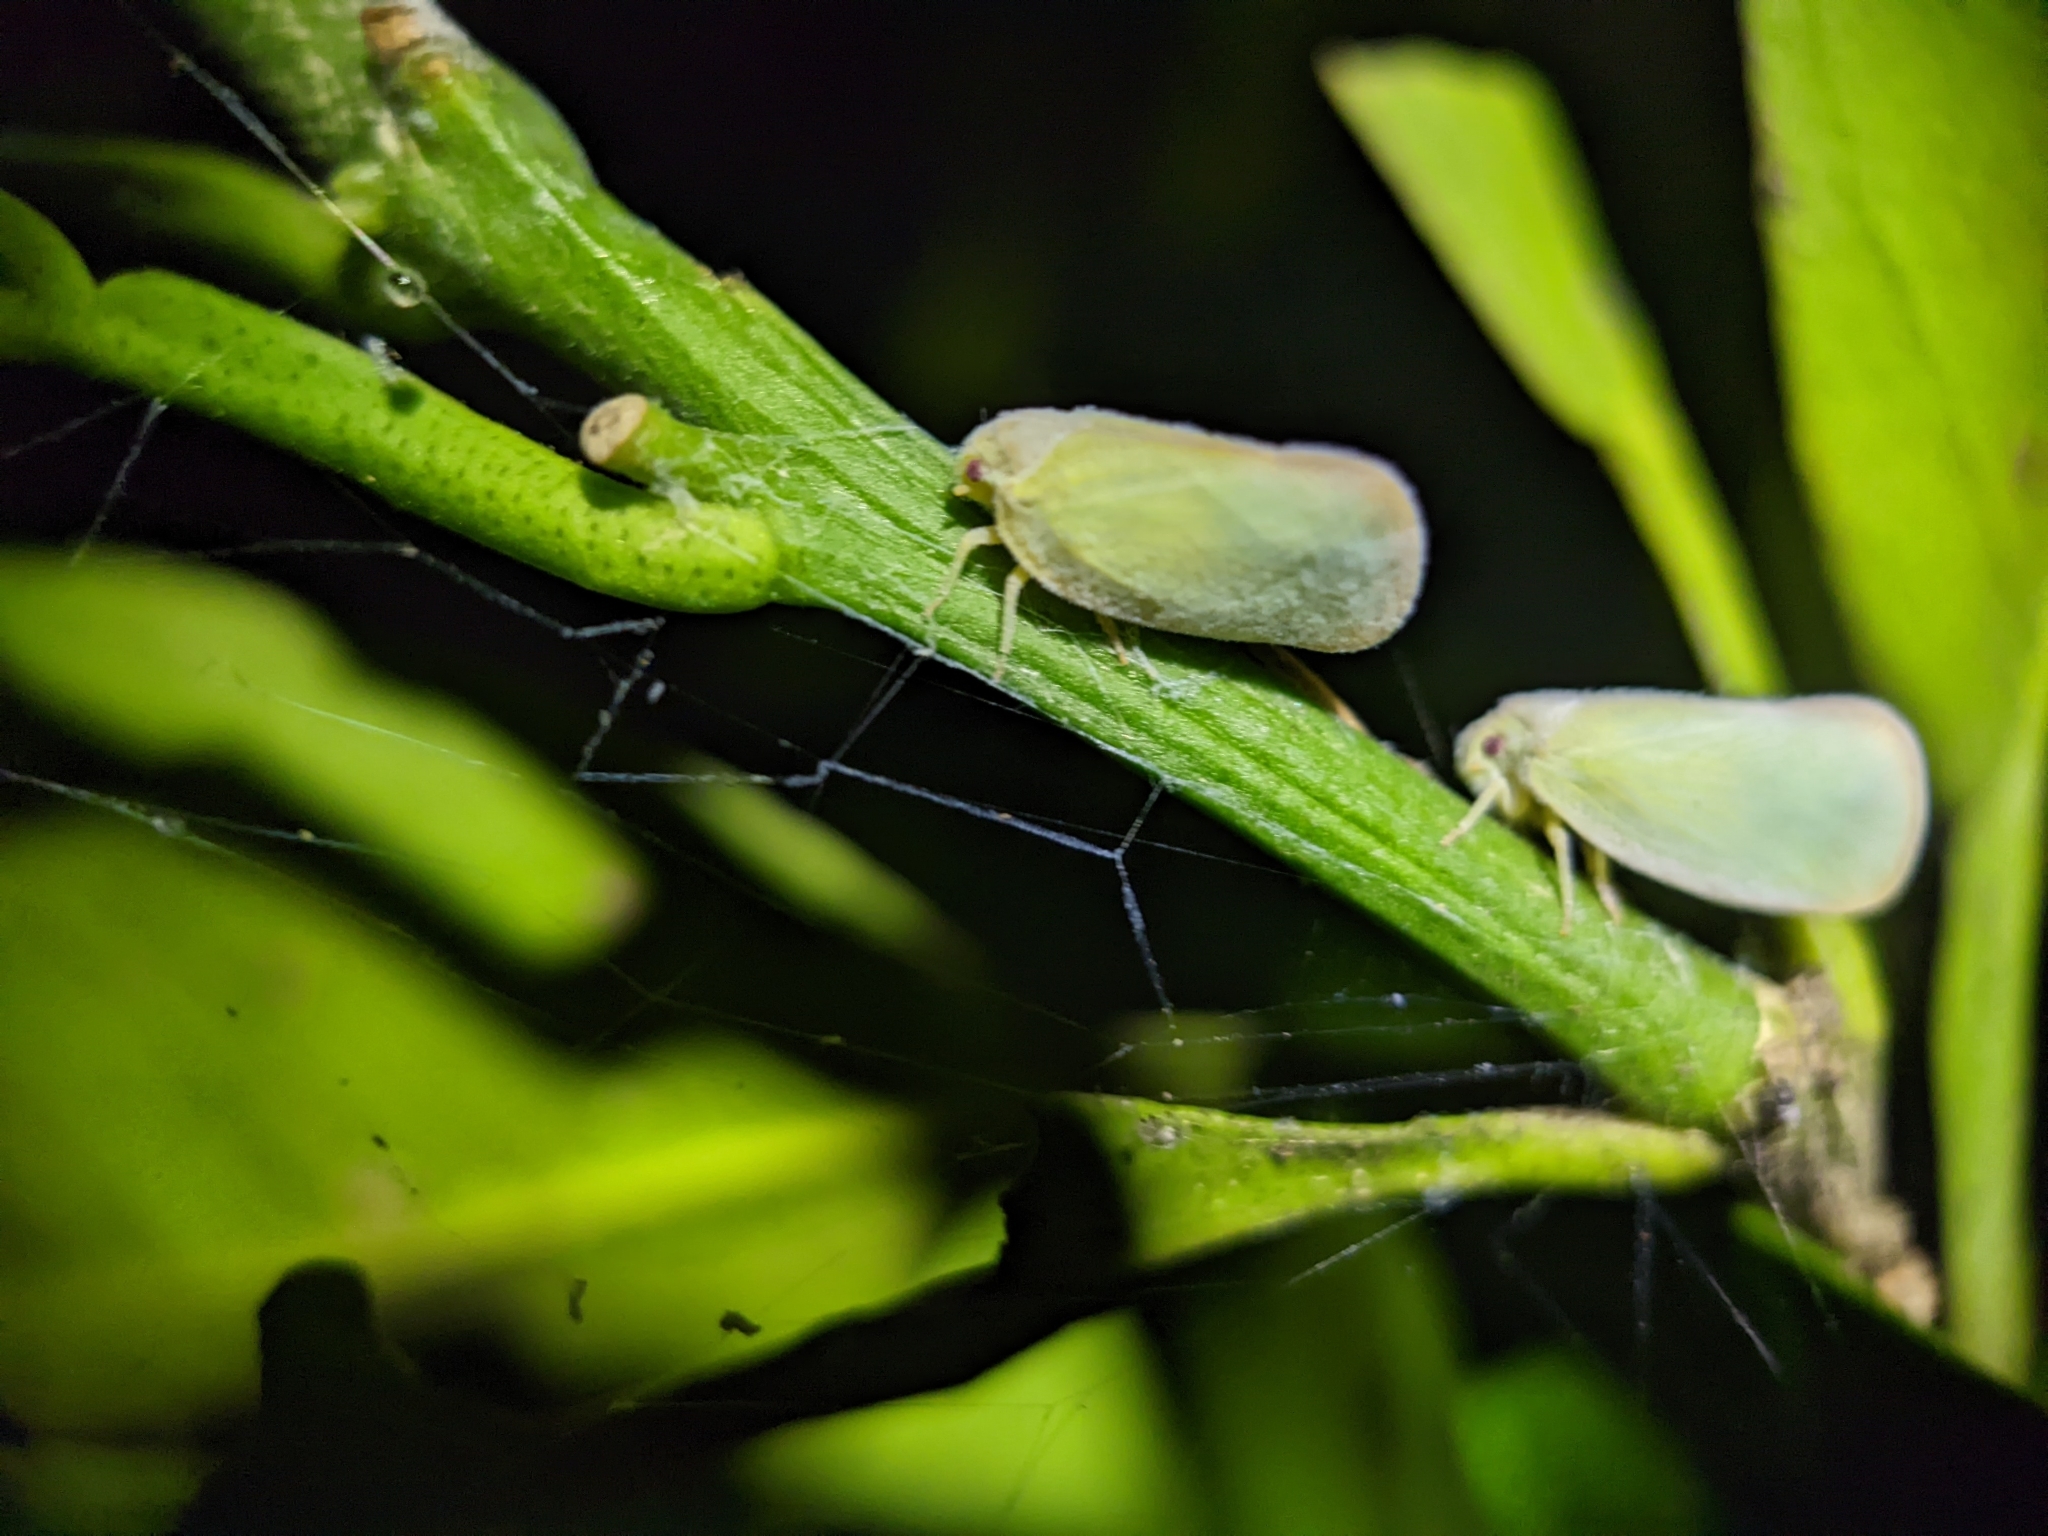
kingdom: Animalia
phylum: Arthropoda
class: Insecta
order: Hemiptera
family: Flatidae
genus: Ormenoides
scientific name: Ormenoides venusta
